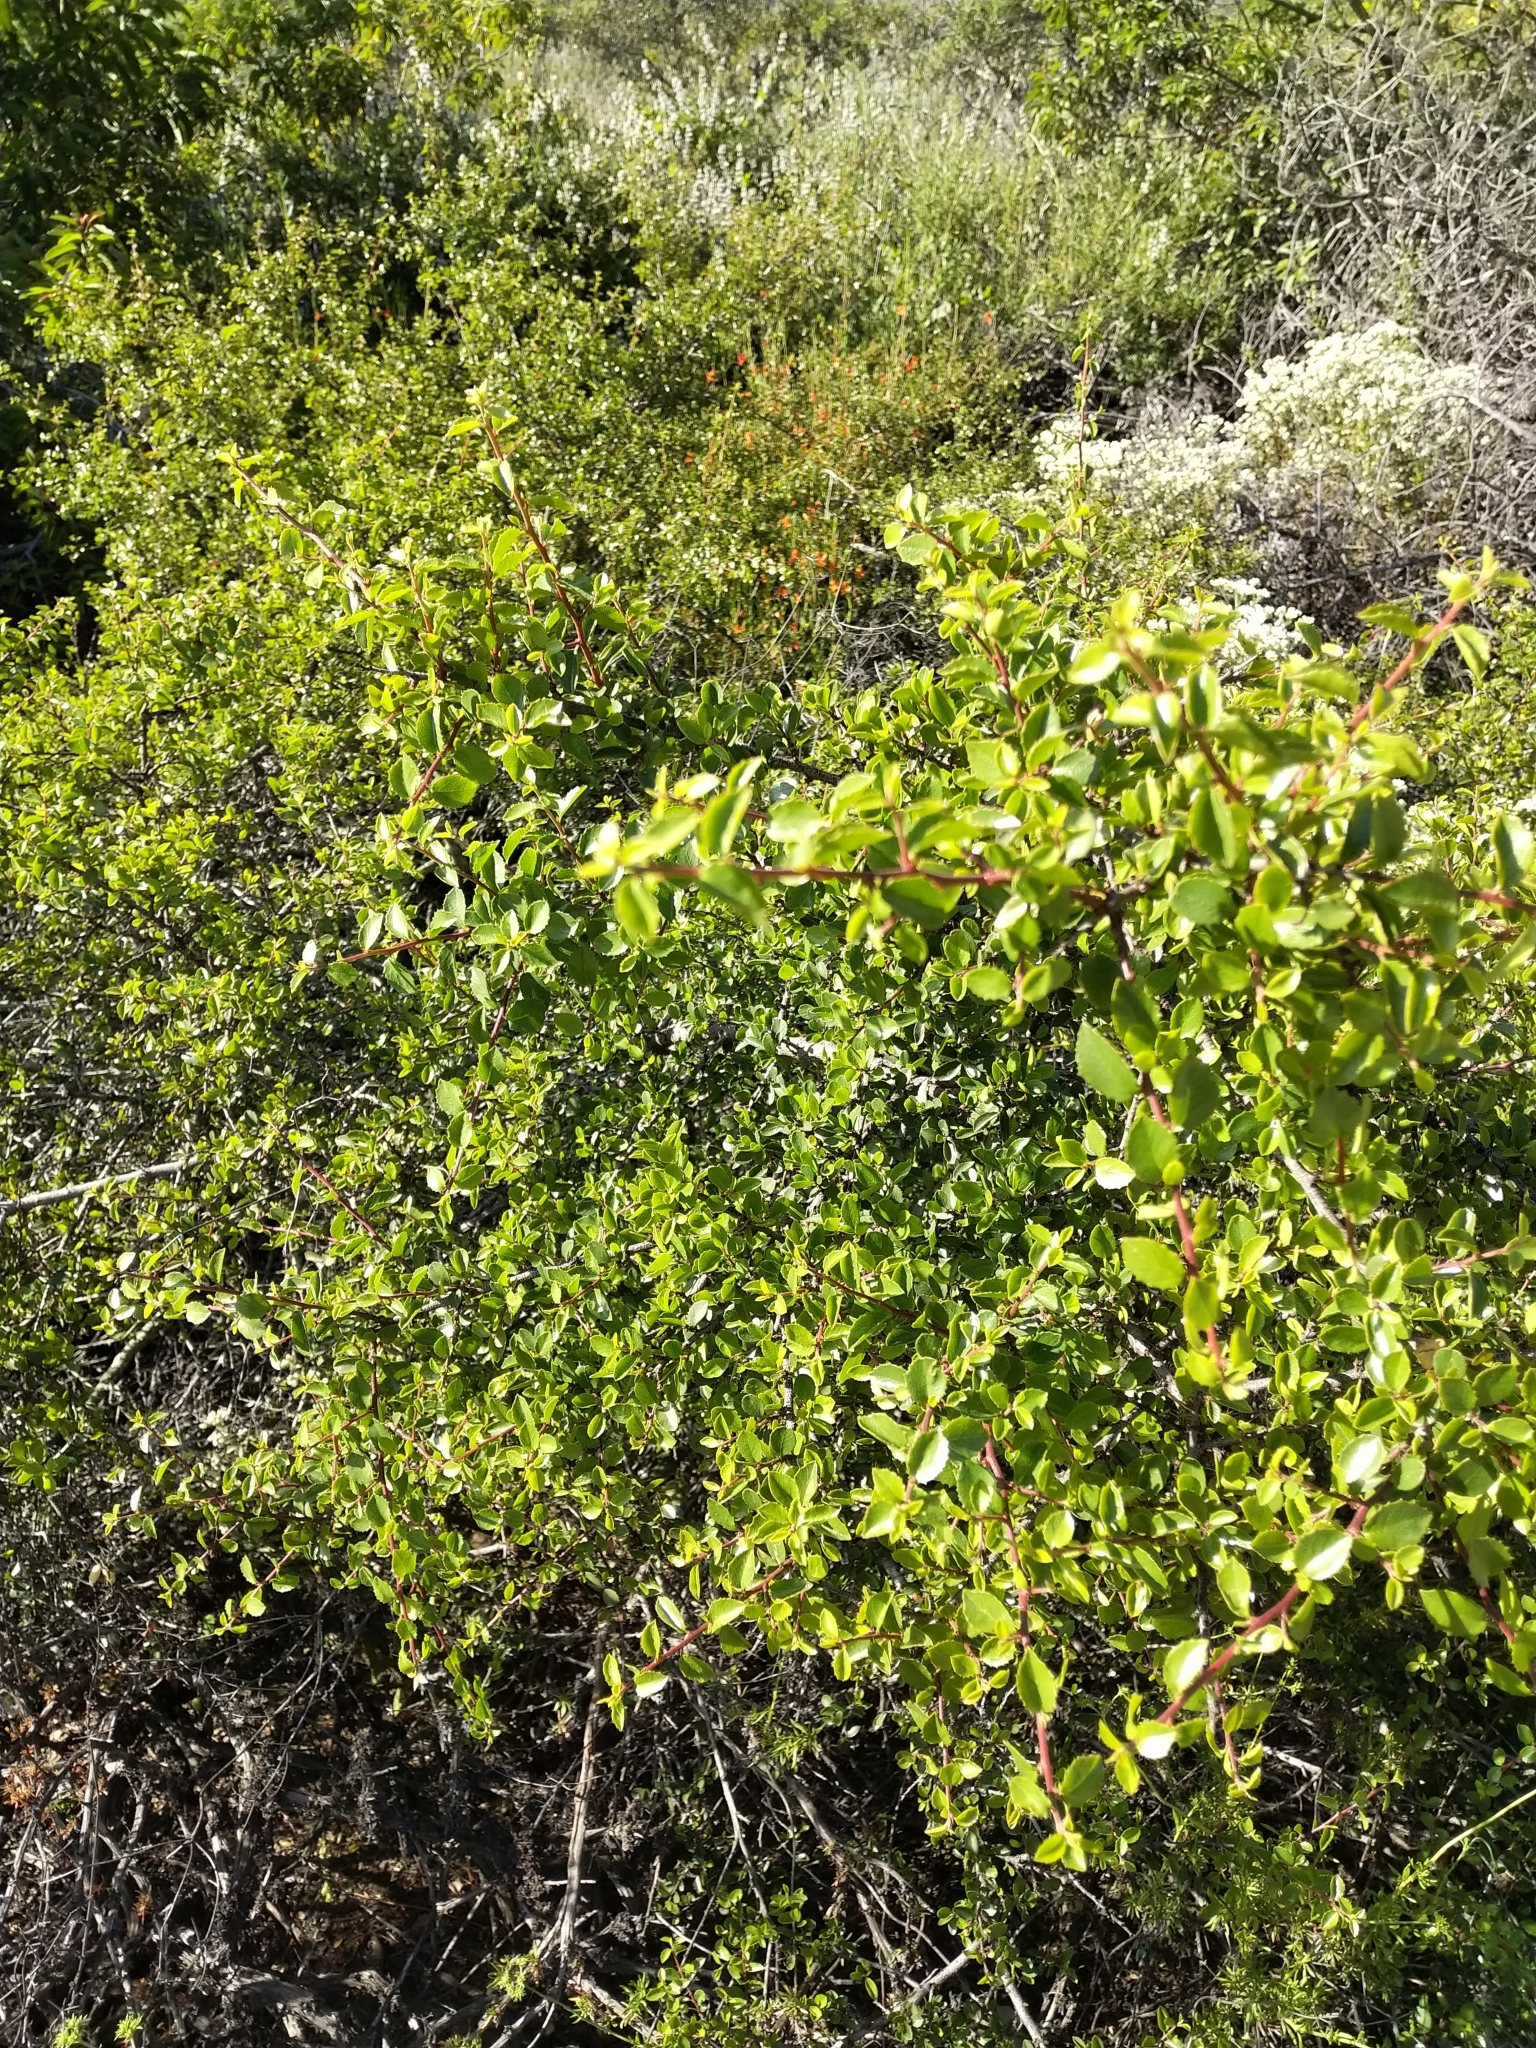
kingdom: Plantae
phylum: Tracheophyta
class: Magnoliopsida
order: Rosales
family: Rhamnaceae
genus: Endotropis
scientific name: Endotropis crocea
